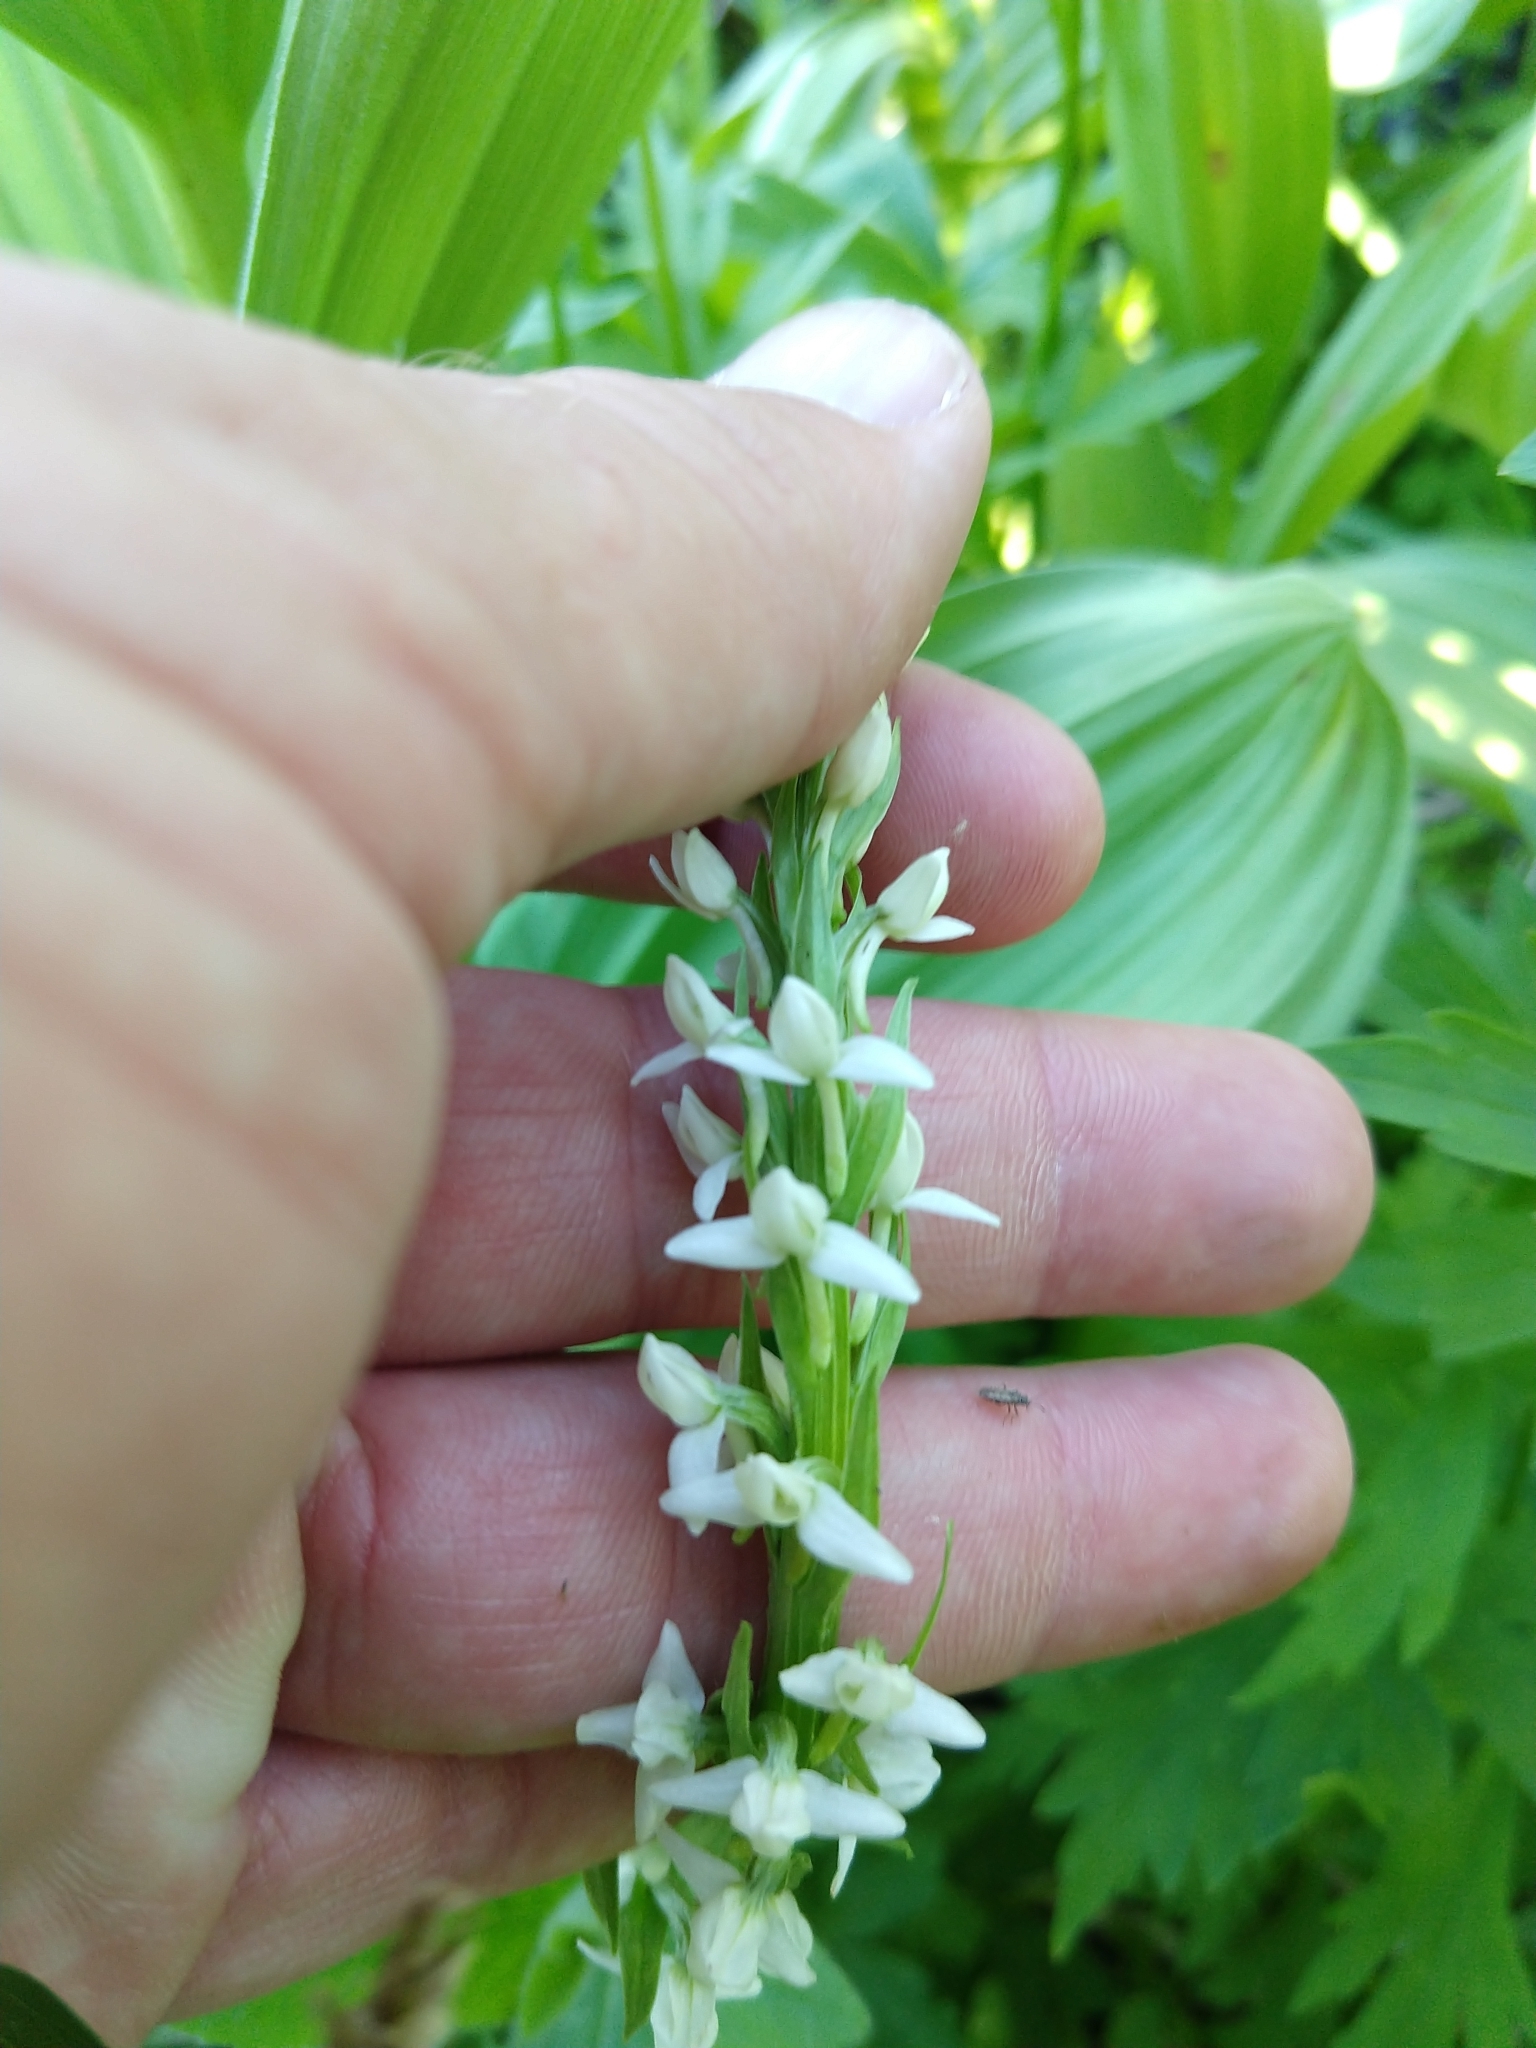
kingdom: Plantae
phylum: Tracheophyta
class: Liliopsida
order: Asparagales
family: Orchidaceae
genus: Platanthera
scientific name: Platanthera dilatata
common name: Bog candles
